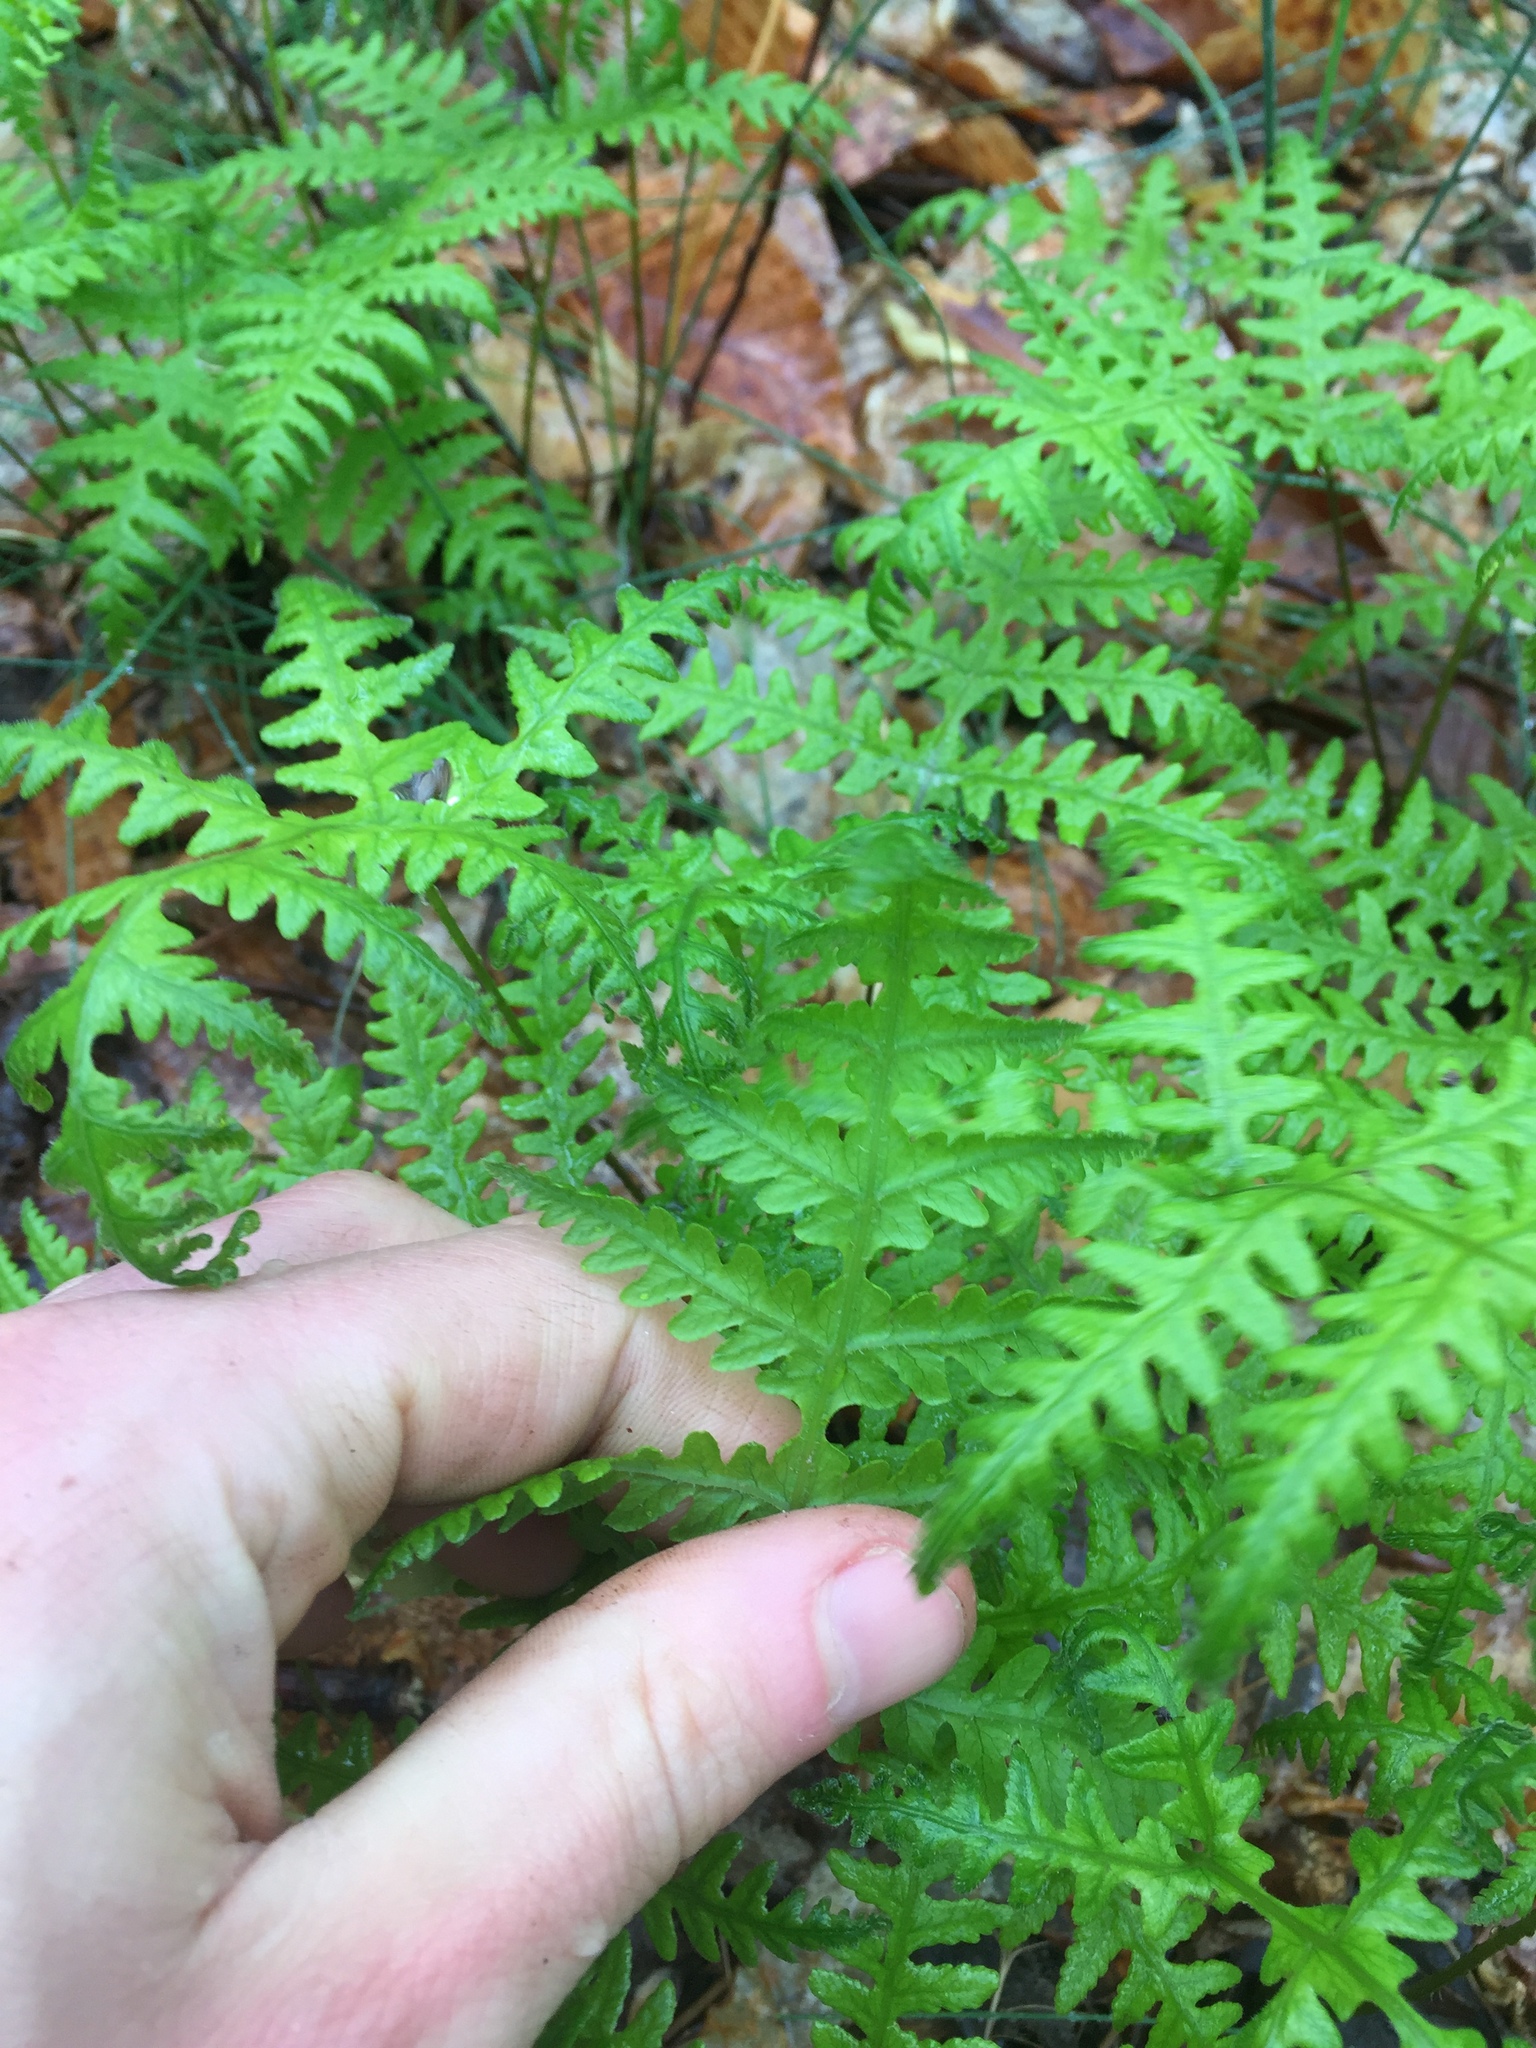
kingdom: Plantae
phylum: Tracheophyta
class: Polypodiopsida
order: Polypodiales
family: Thelypteridaceae
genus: Phegopteris
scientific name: Phegopteris hexagonoptera
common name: Broad beech fern
